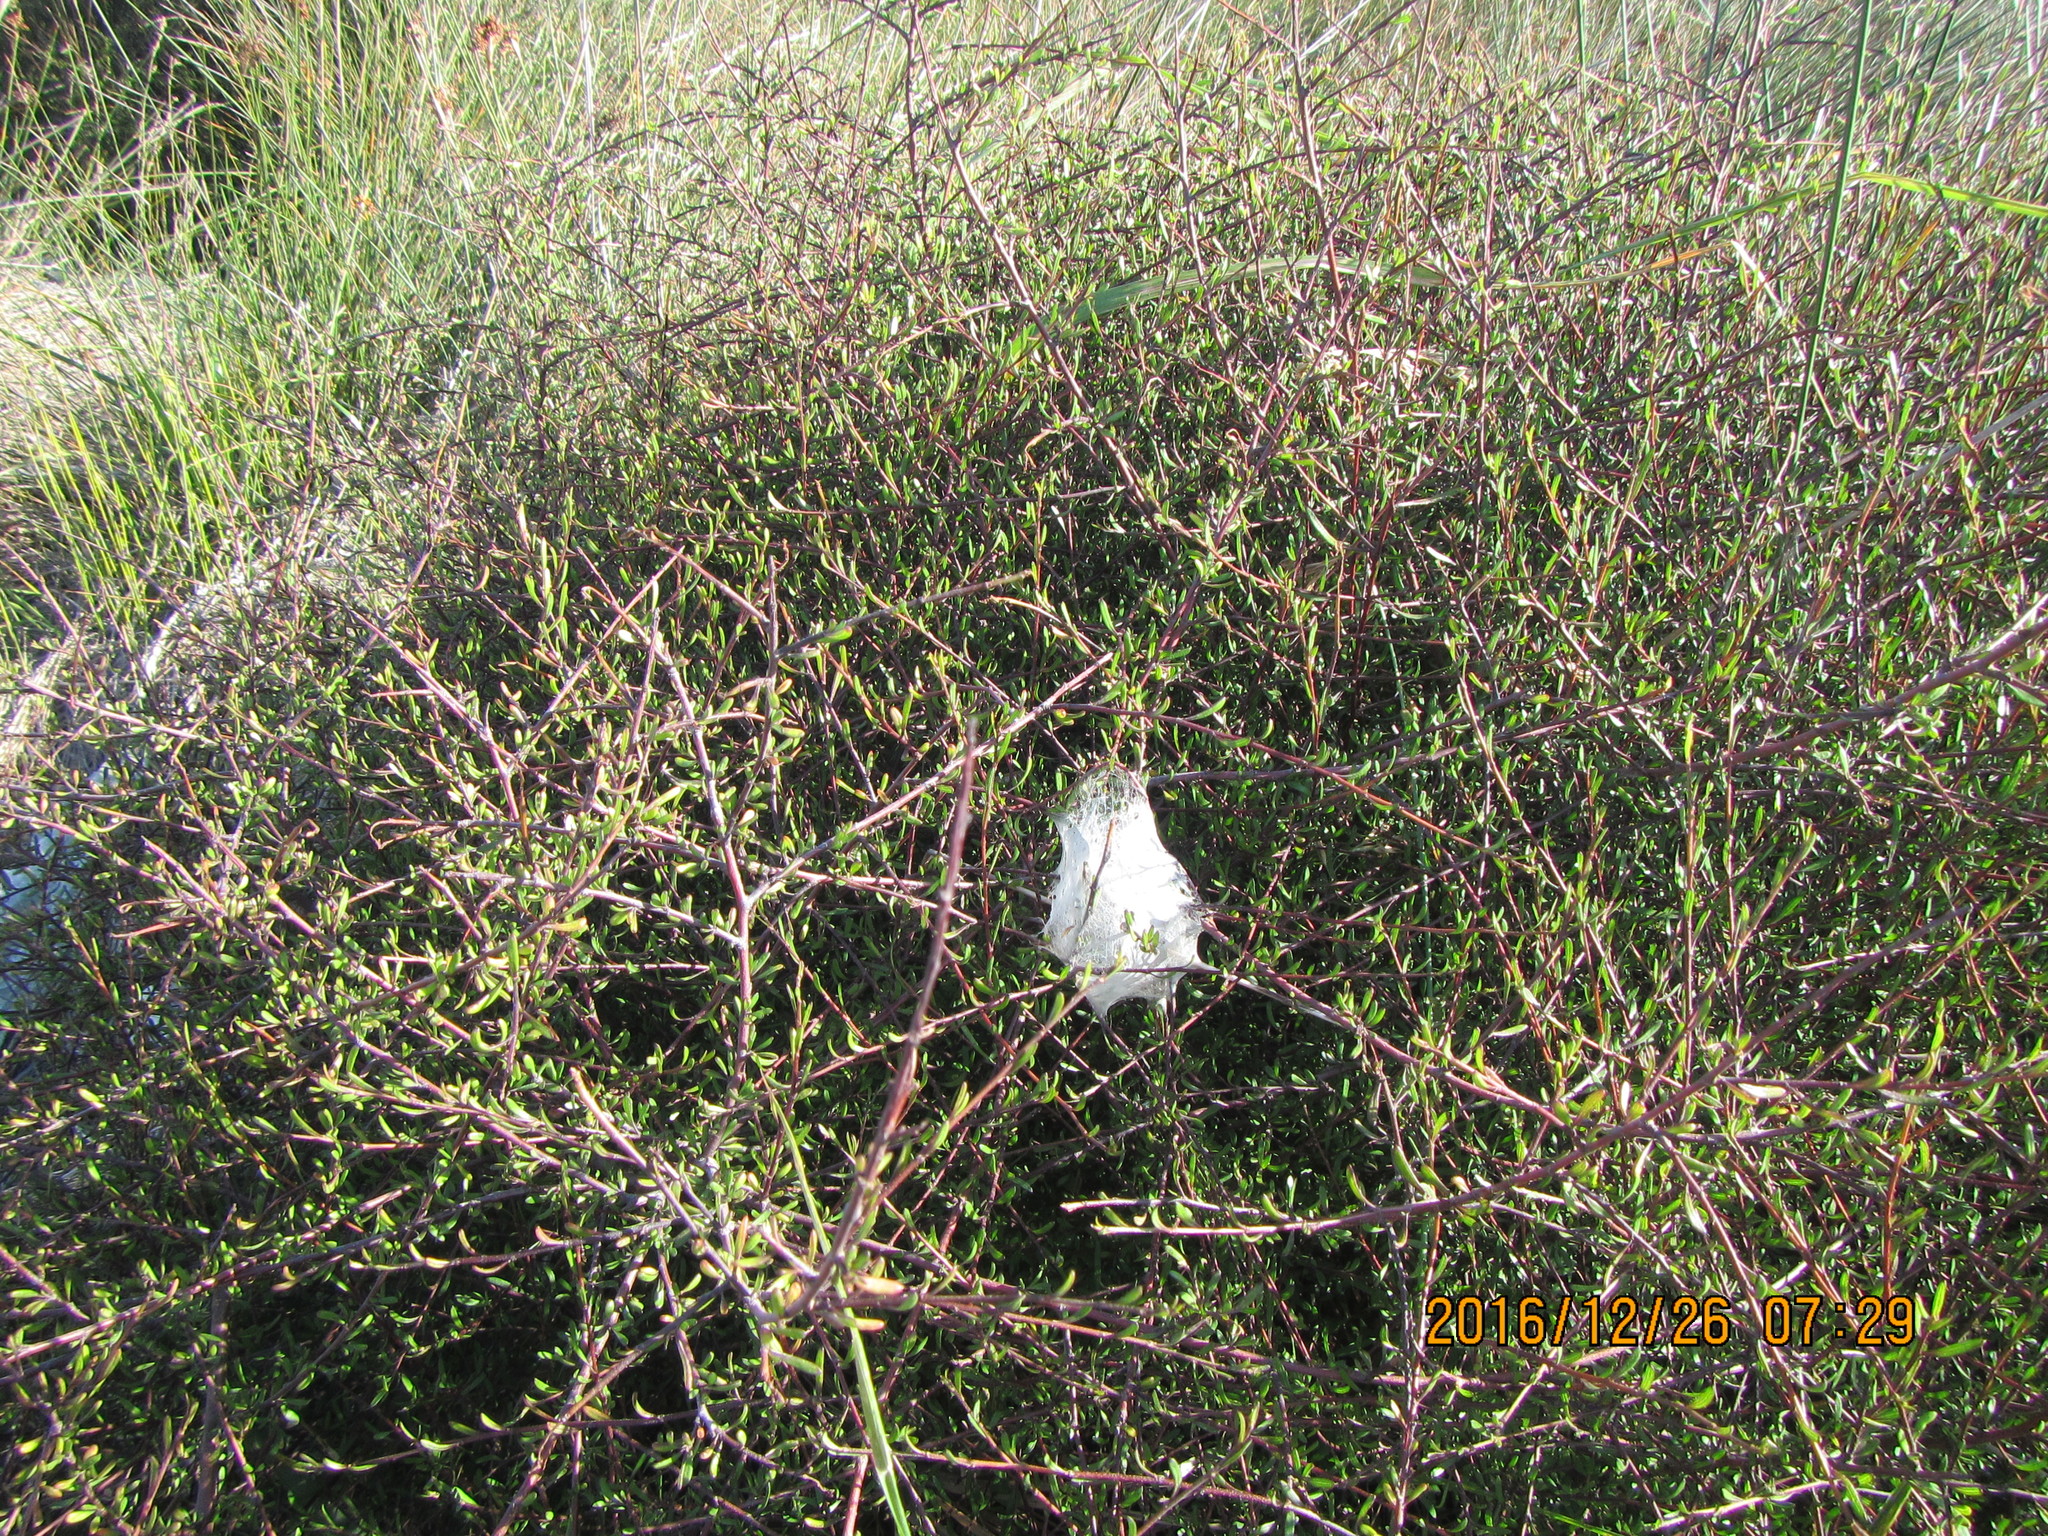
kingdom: Plantae
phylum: Tracheophyta
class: Magnoliopsida
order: Malvales
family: Malvaceae
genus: Plagianthus
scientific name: Plagianthus divaricatus
